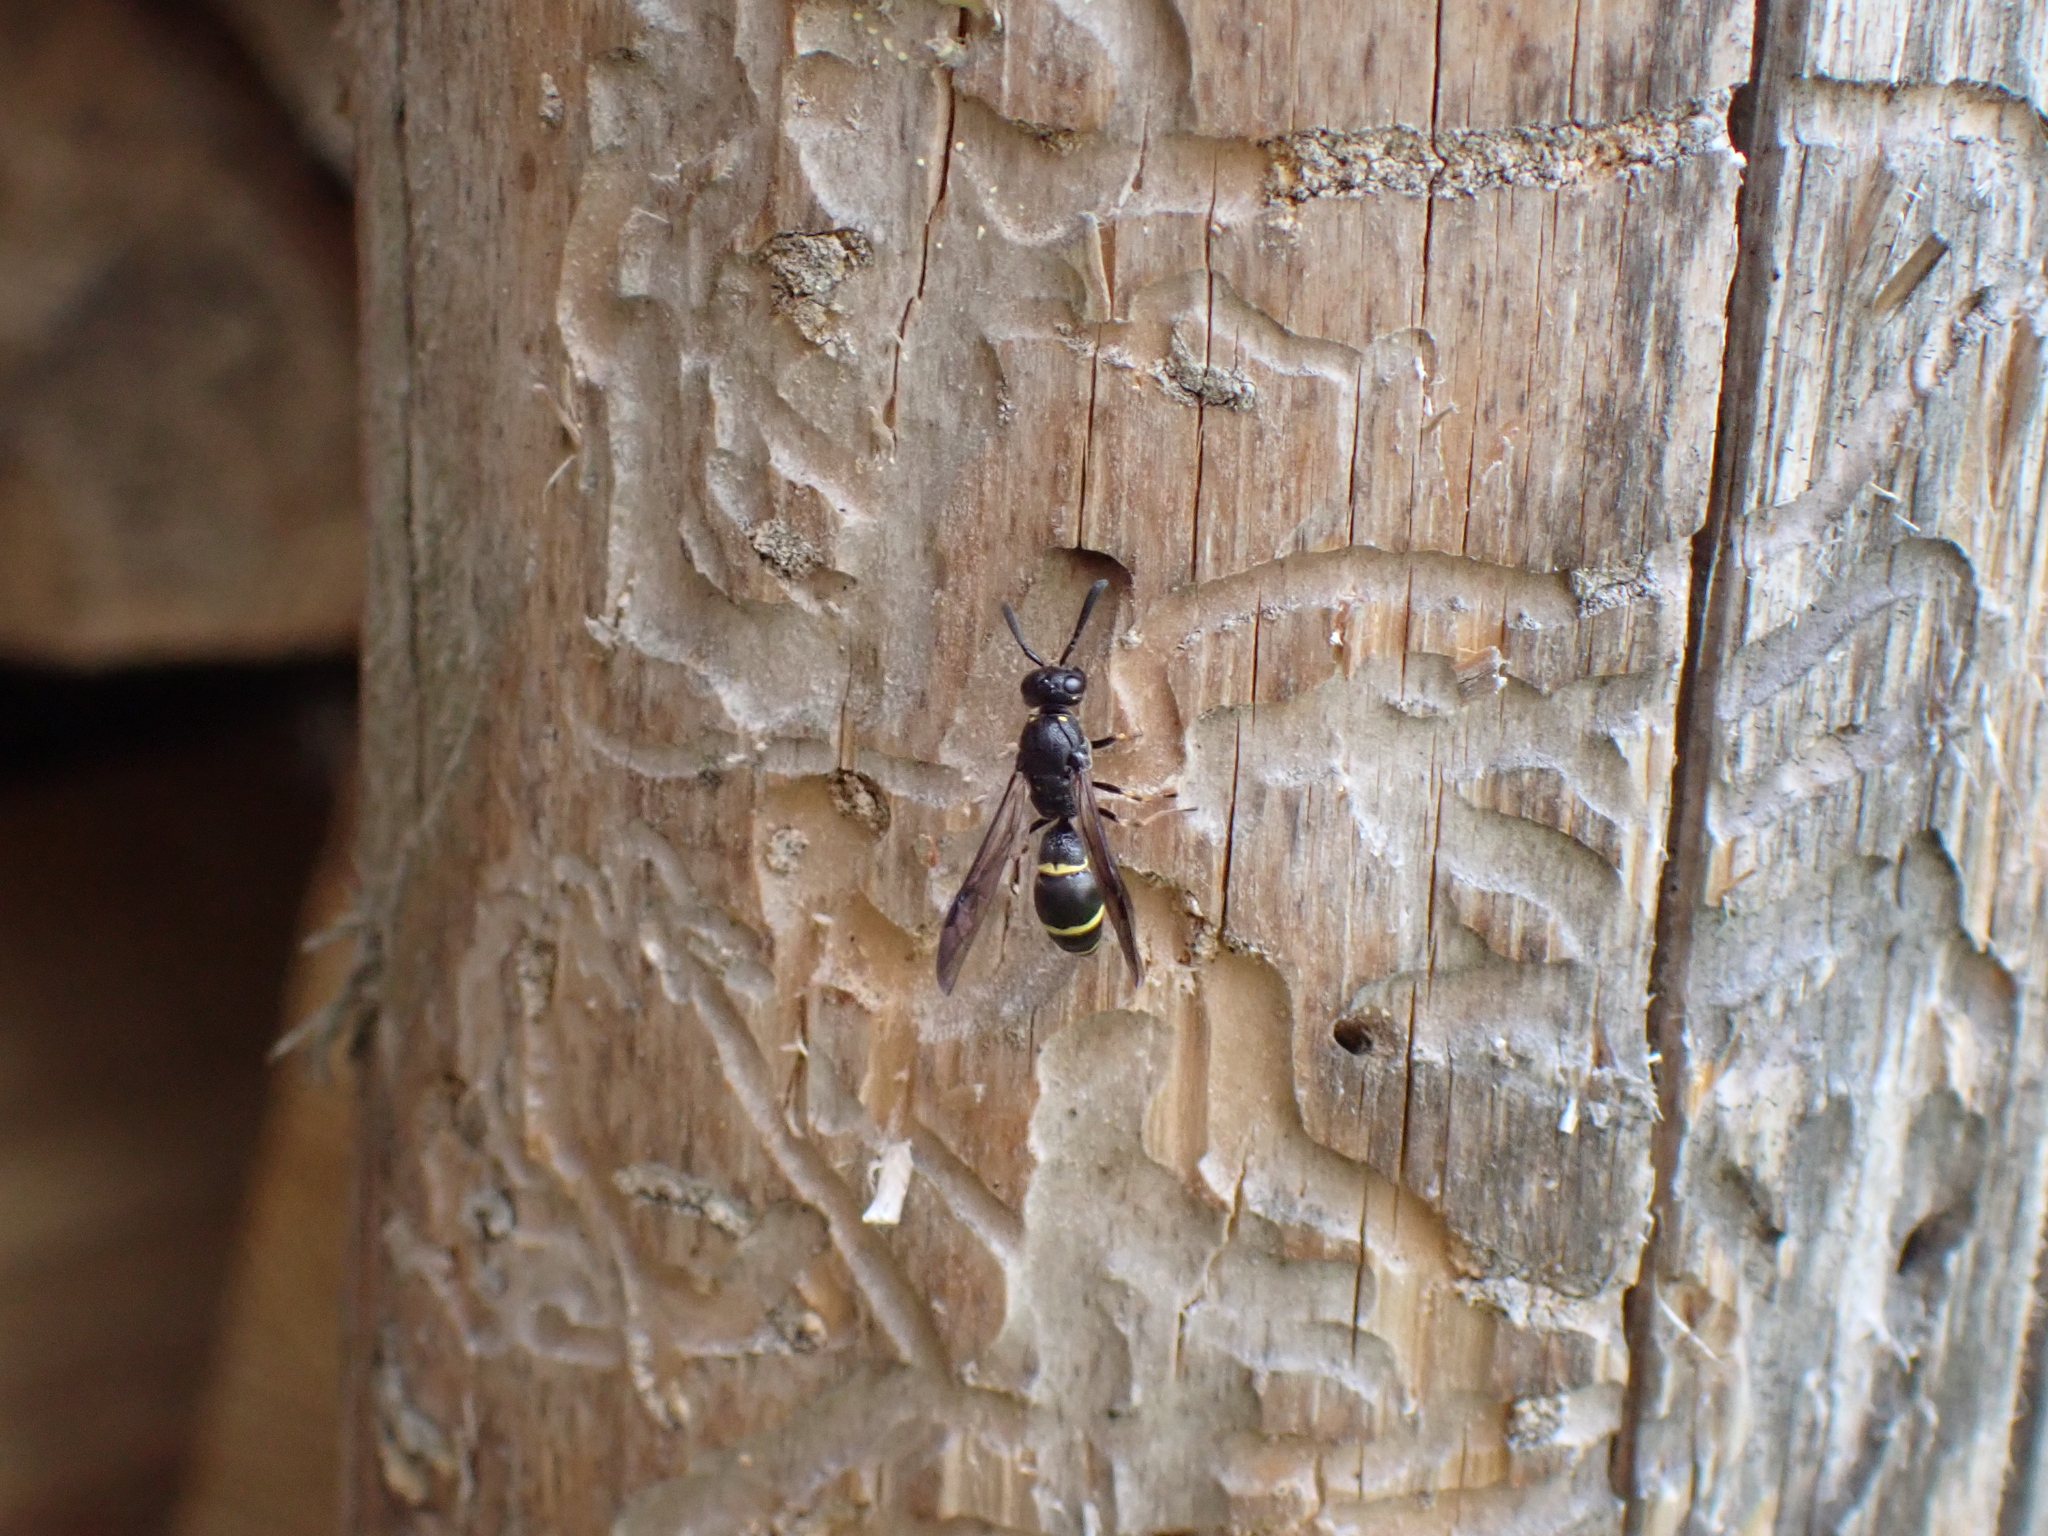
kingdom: Animalia
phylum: Arthropoda
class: Insecta
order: Hymenoptera
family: Eumenidae
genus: Symmorphus
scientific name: Symmorphus
